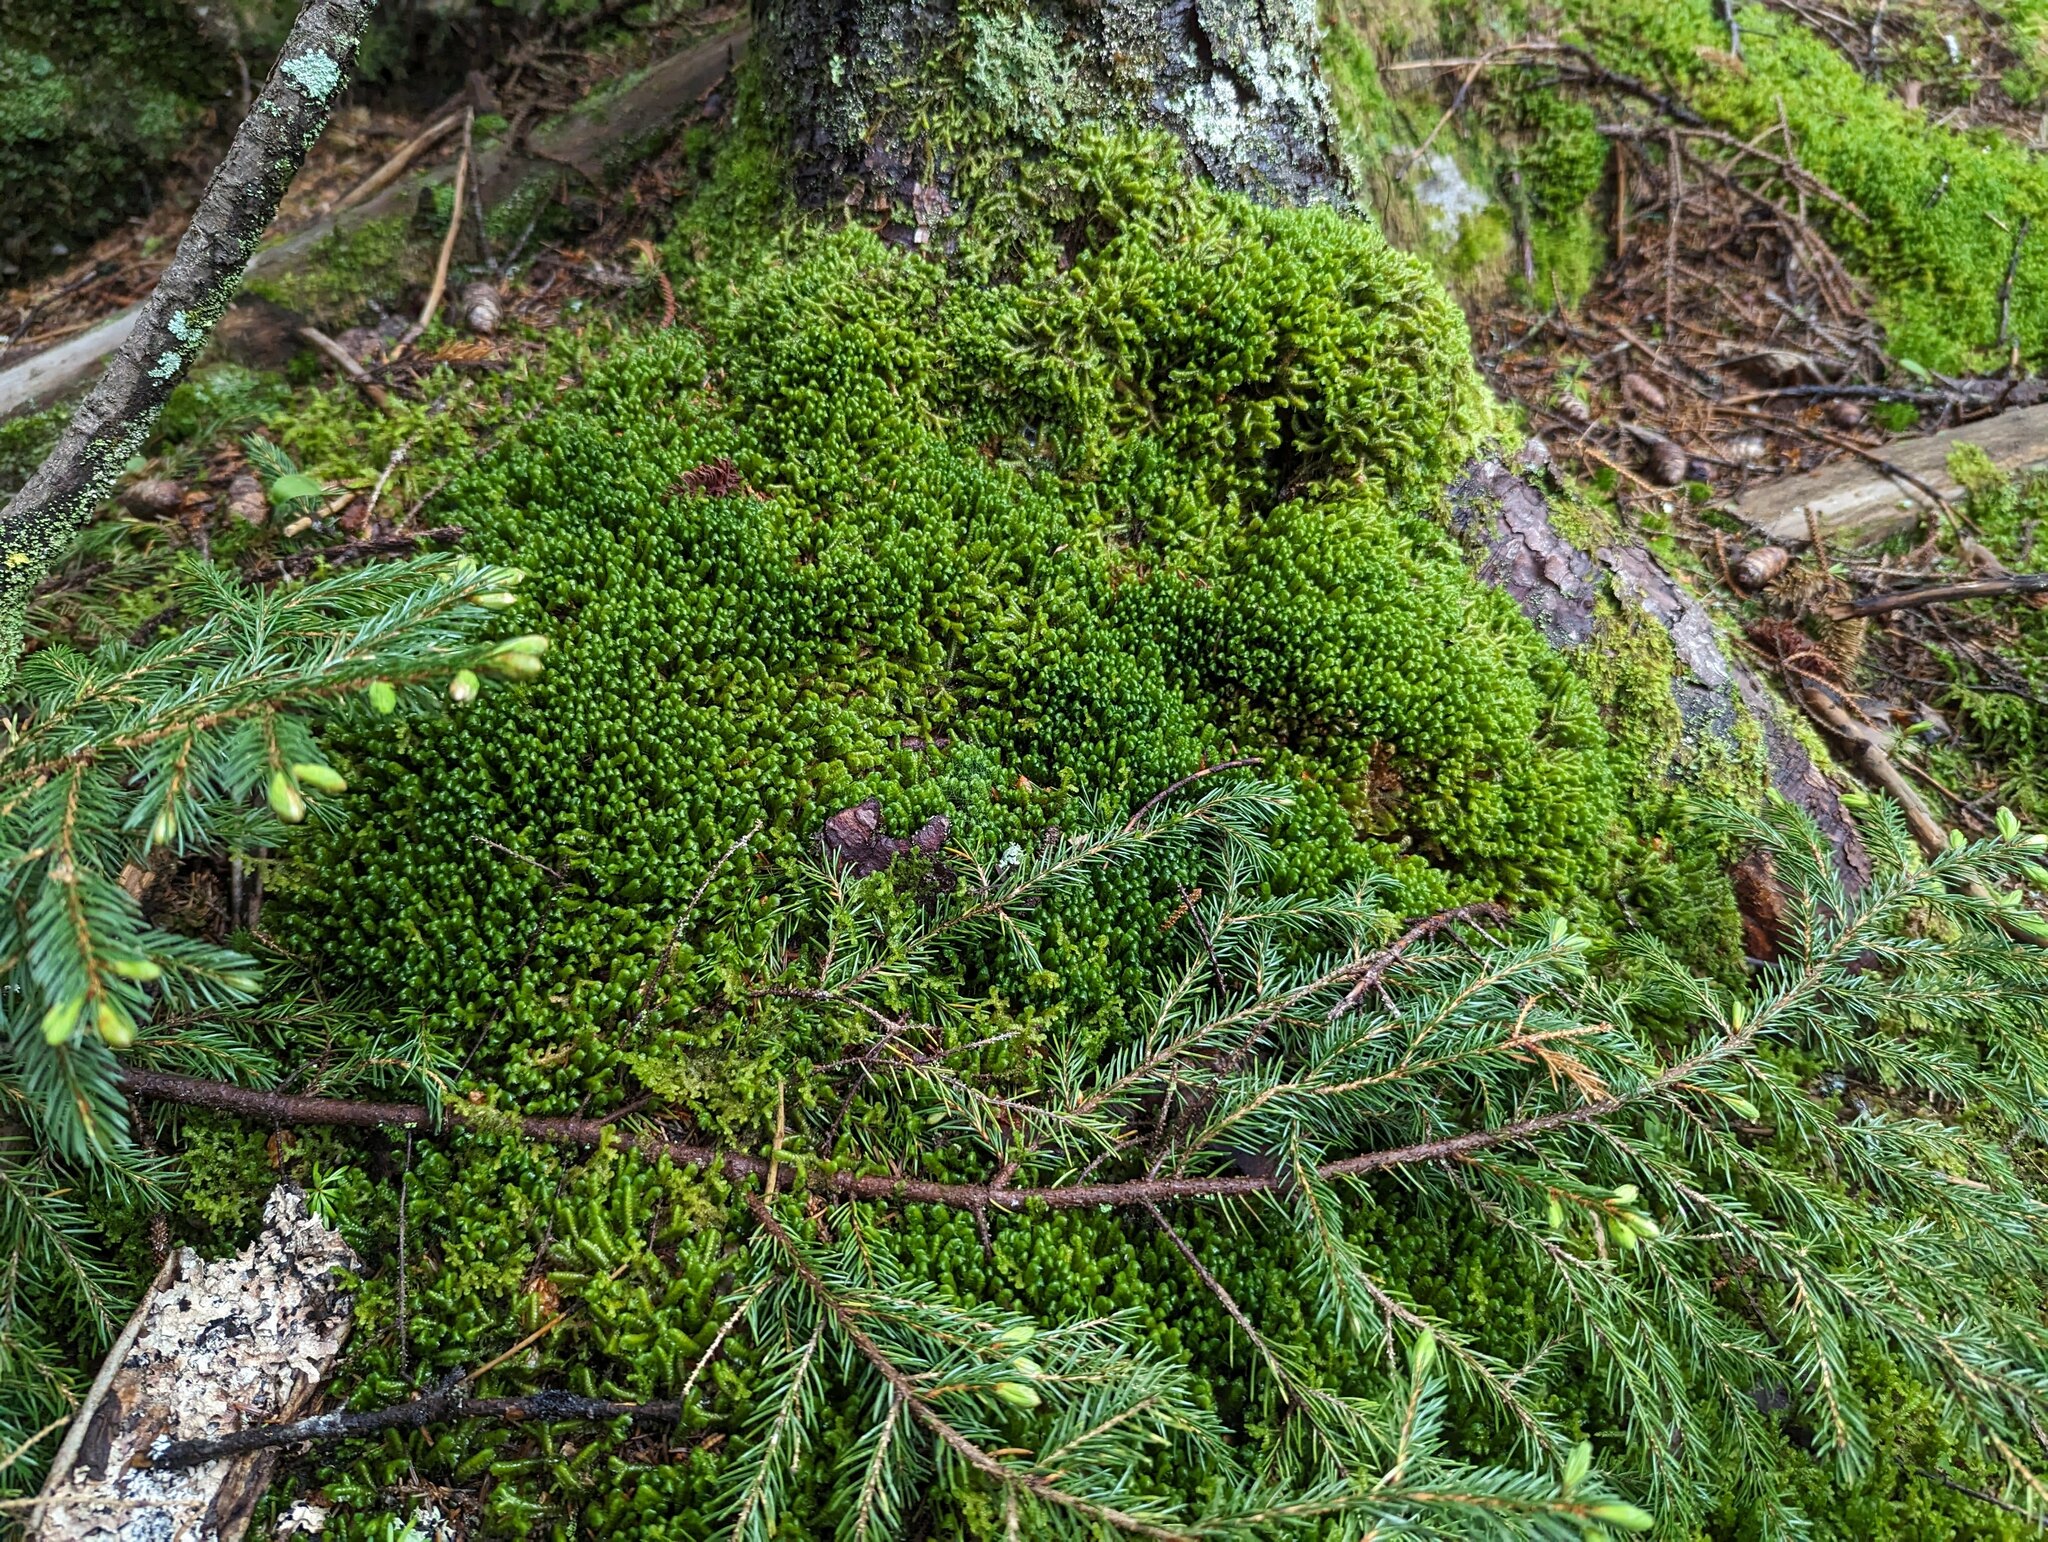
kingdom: Plantae
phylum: Tracheophyta
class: Pinopsida
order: Pinales
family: Pinaceae
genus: Picea
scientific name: Picea rubens
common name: Red spruce
